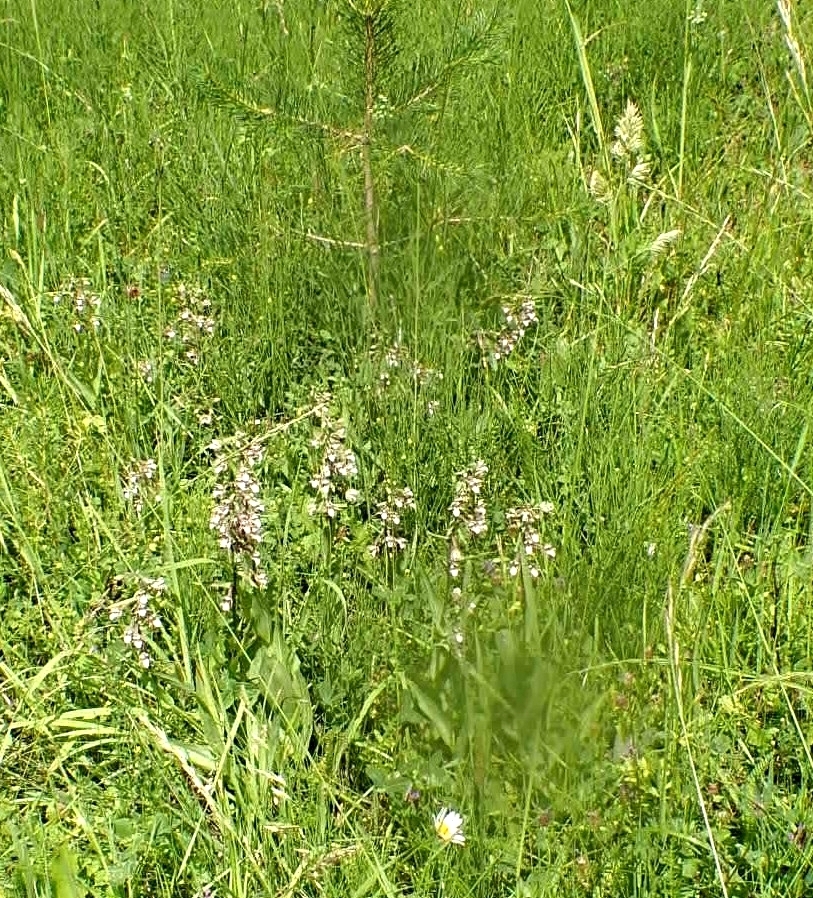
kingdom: Plantae
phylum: Tracheophyta
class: Liliopsida
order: Asparagales
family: Orchidaceae
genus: Epipactis
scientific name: Epipactis palustris
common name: Marsh helleborine
